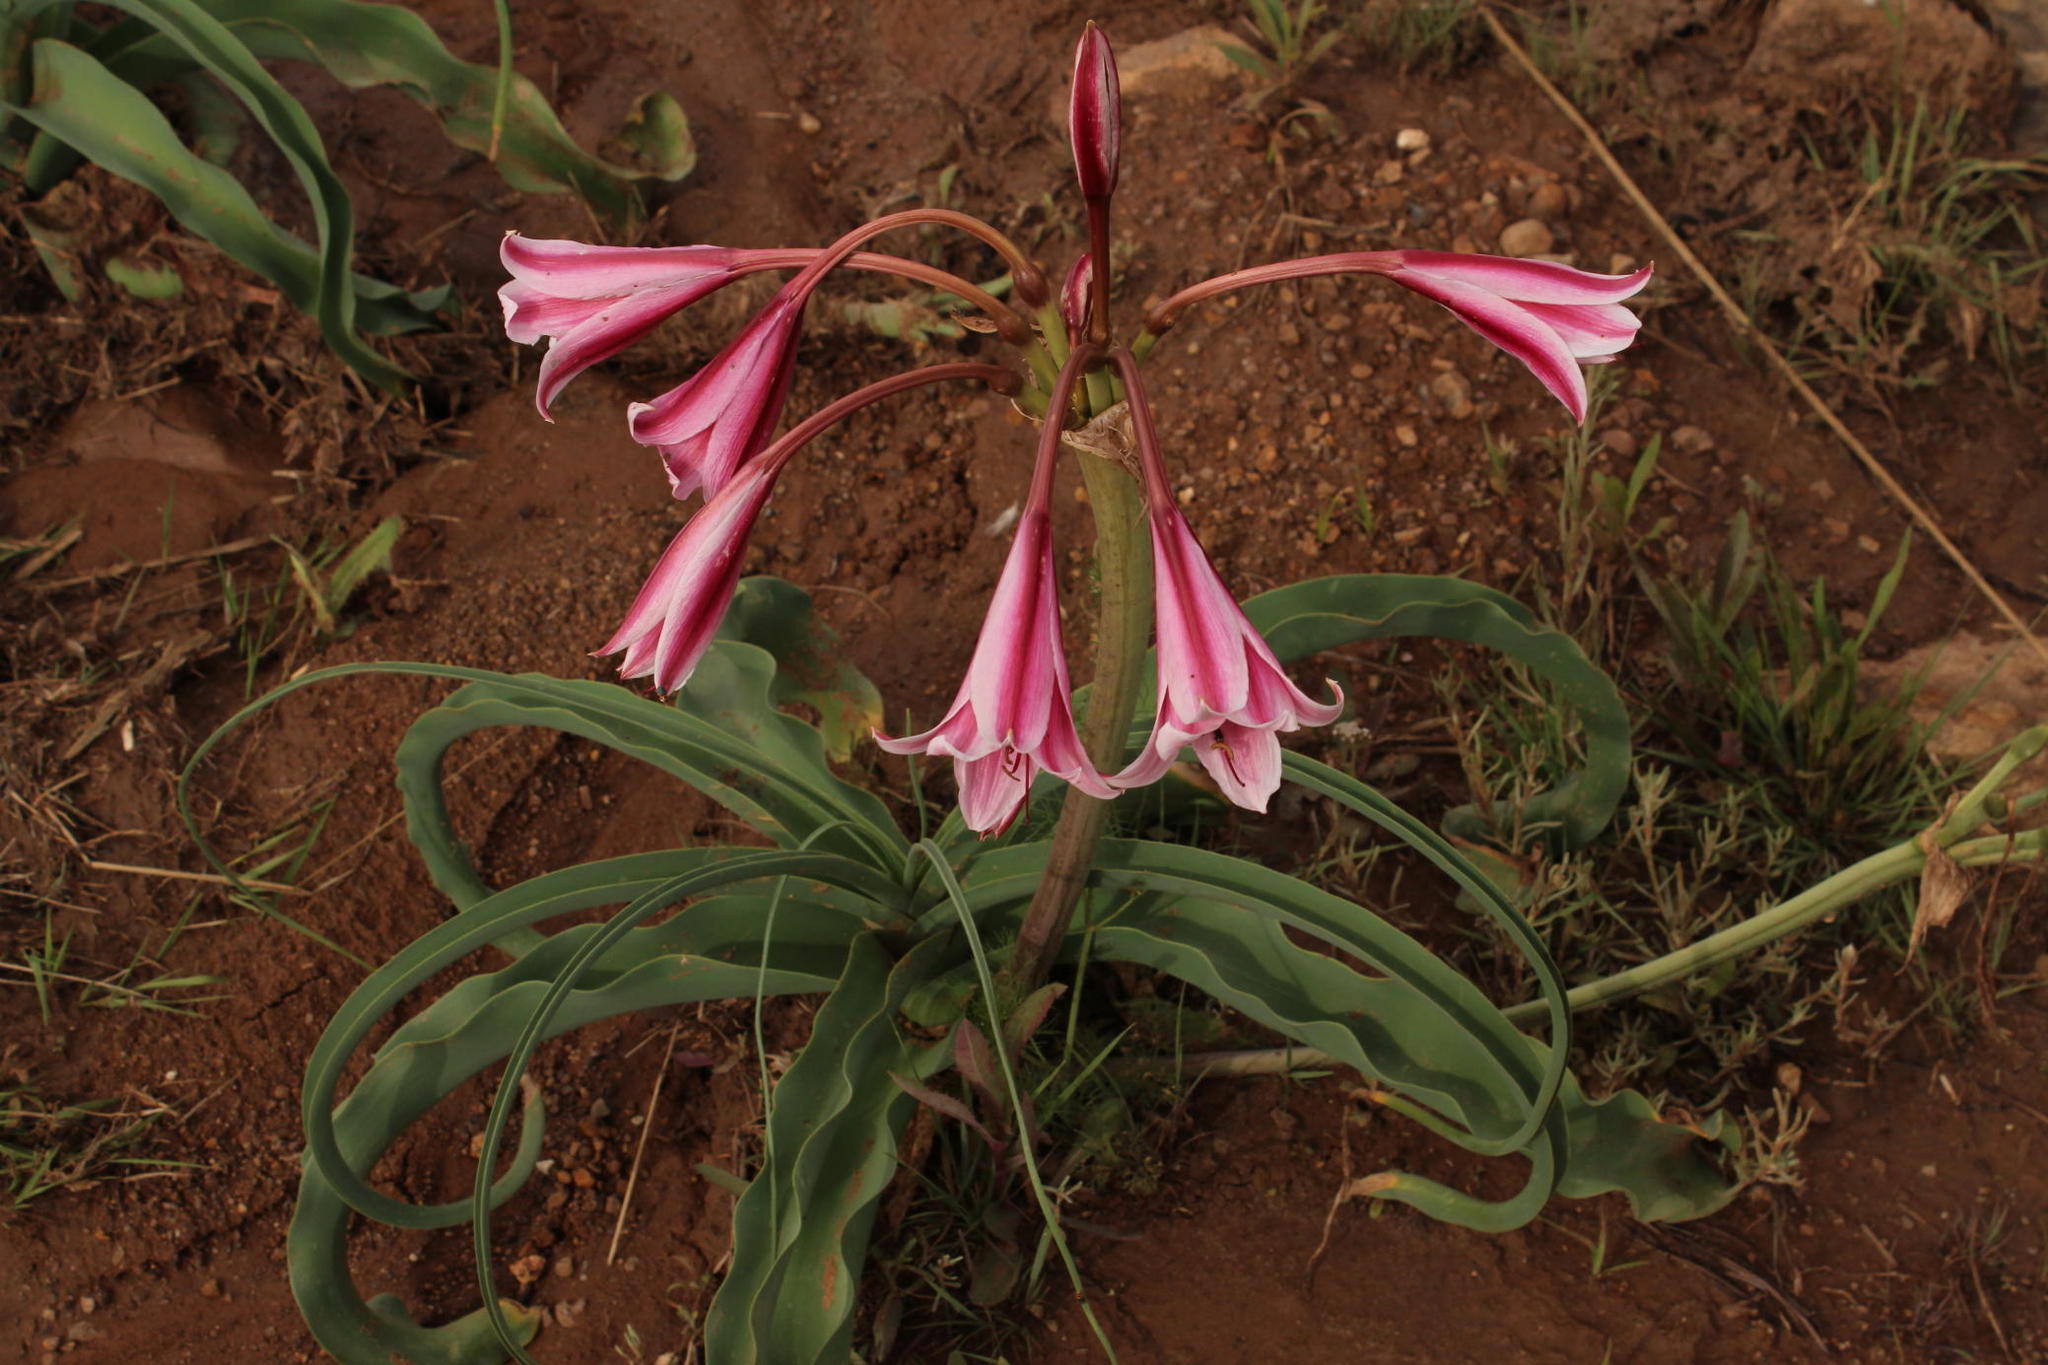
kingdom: Plantae
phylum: Tracheophyta
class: Liliopsida
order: Asparagales
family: Amaryllidaceae
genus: Crinum
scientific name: Crinum bulbispermum
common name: Hardy swamplily
